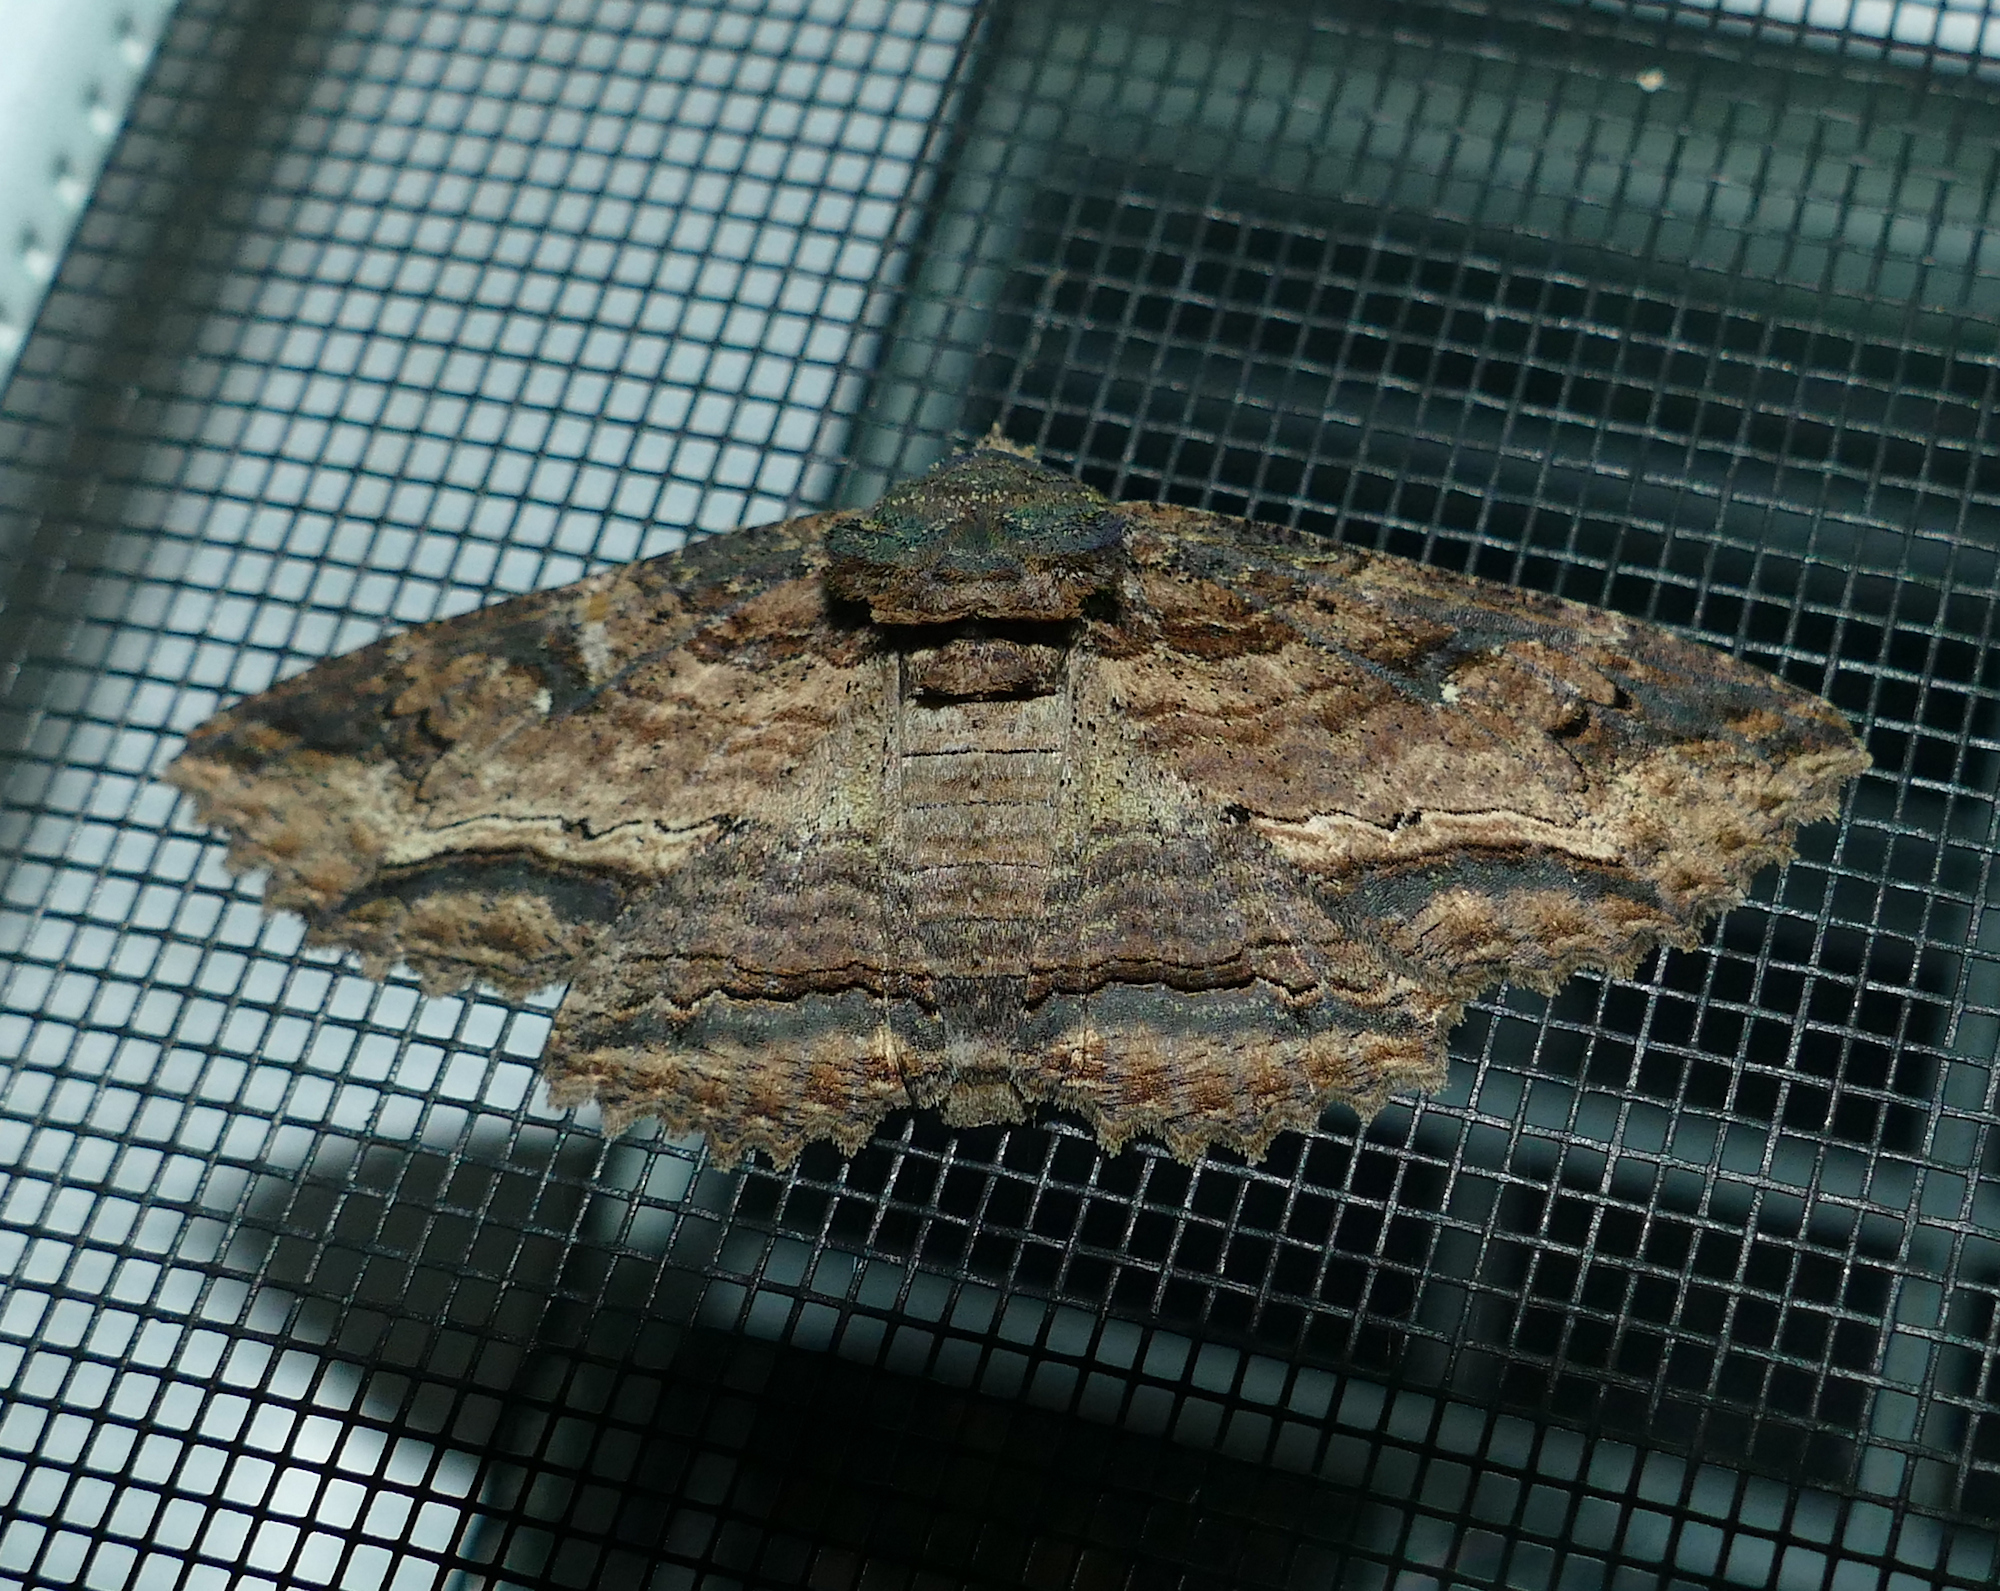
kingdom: Animalia
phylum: Arthropoda
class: Insecta
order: Lepidoptera
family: Erebidae
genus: Zale
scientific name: Zale lunata
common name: Lunate zale moth
